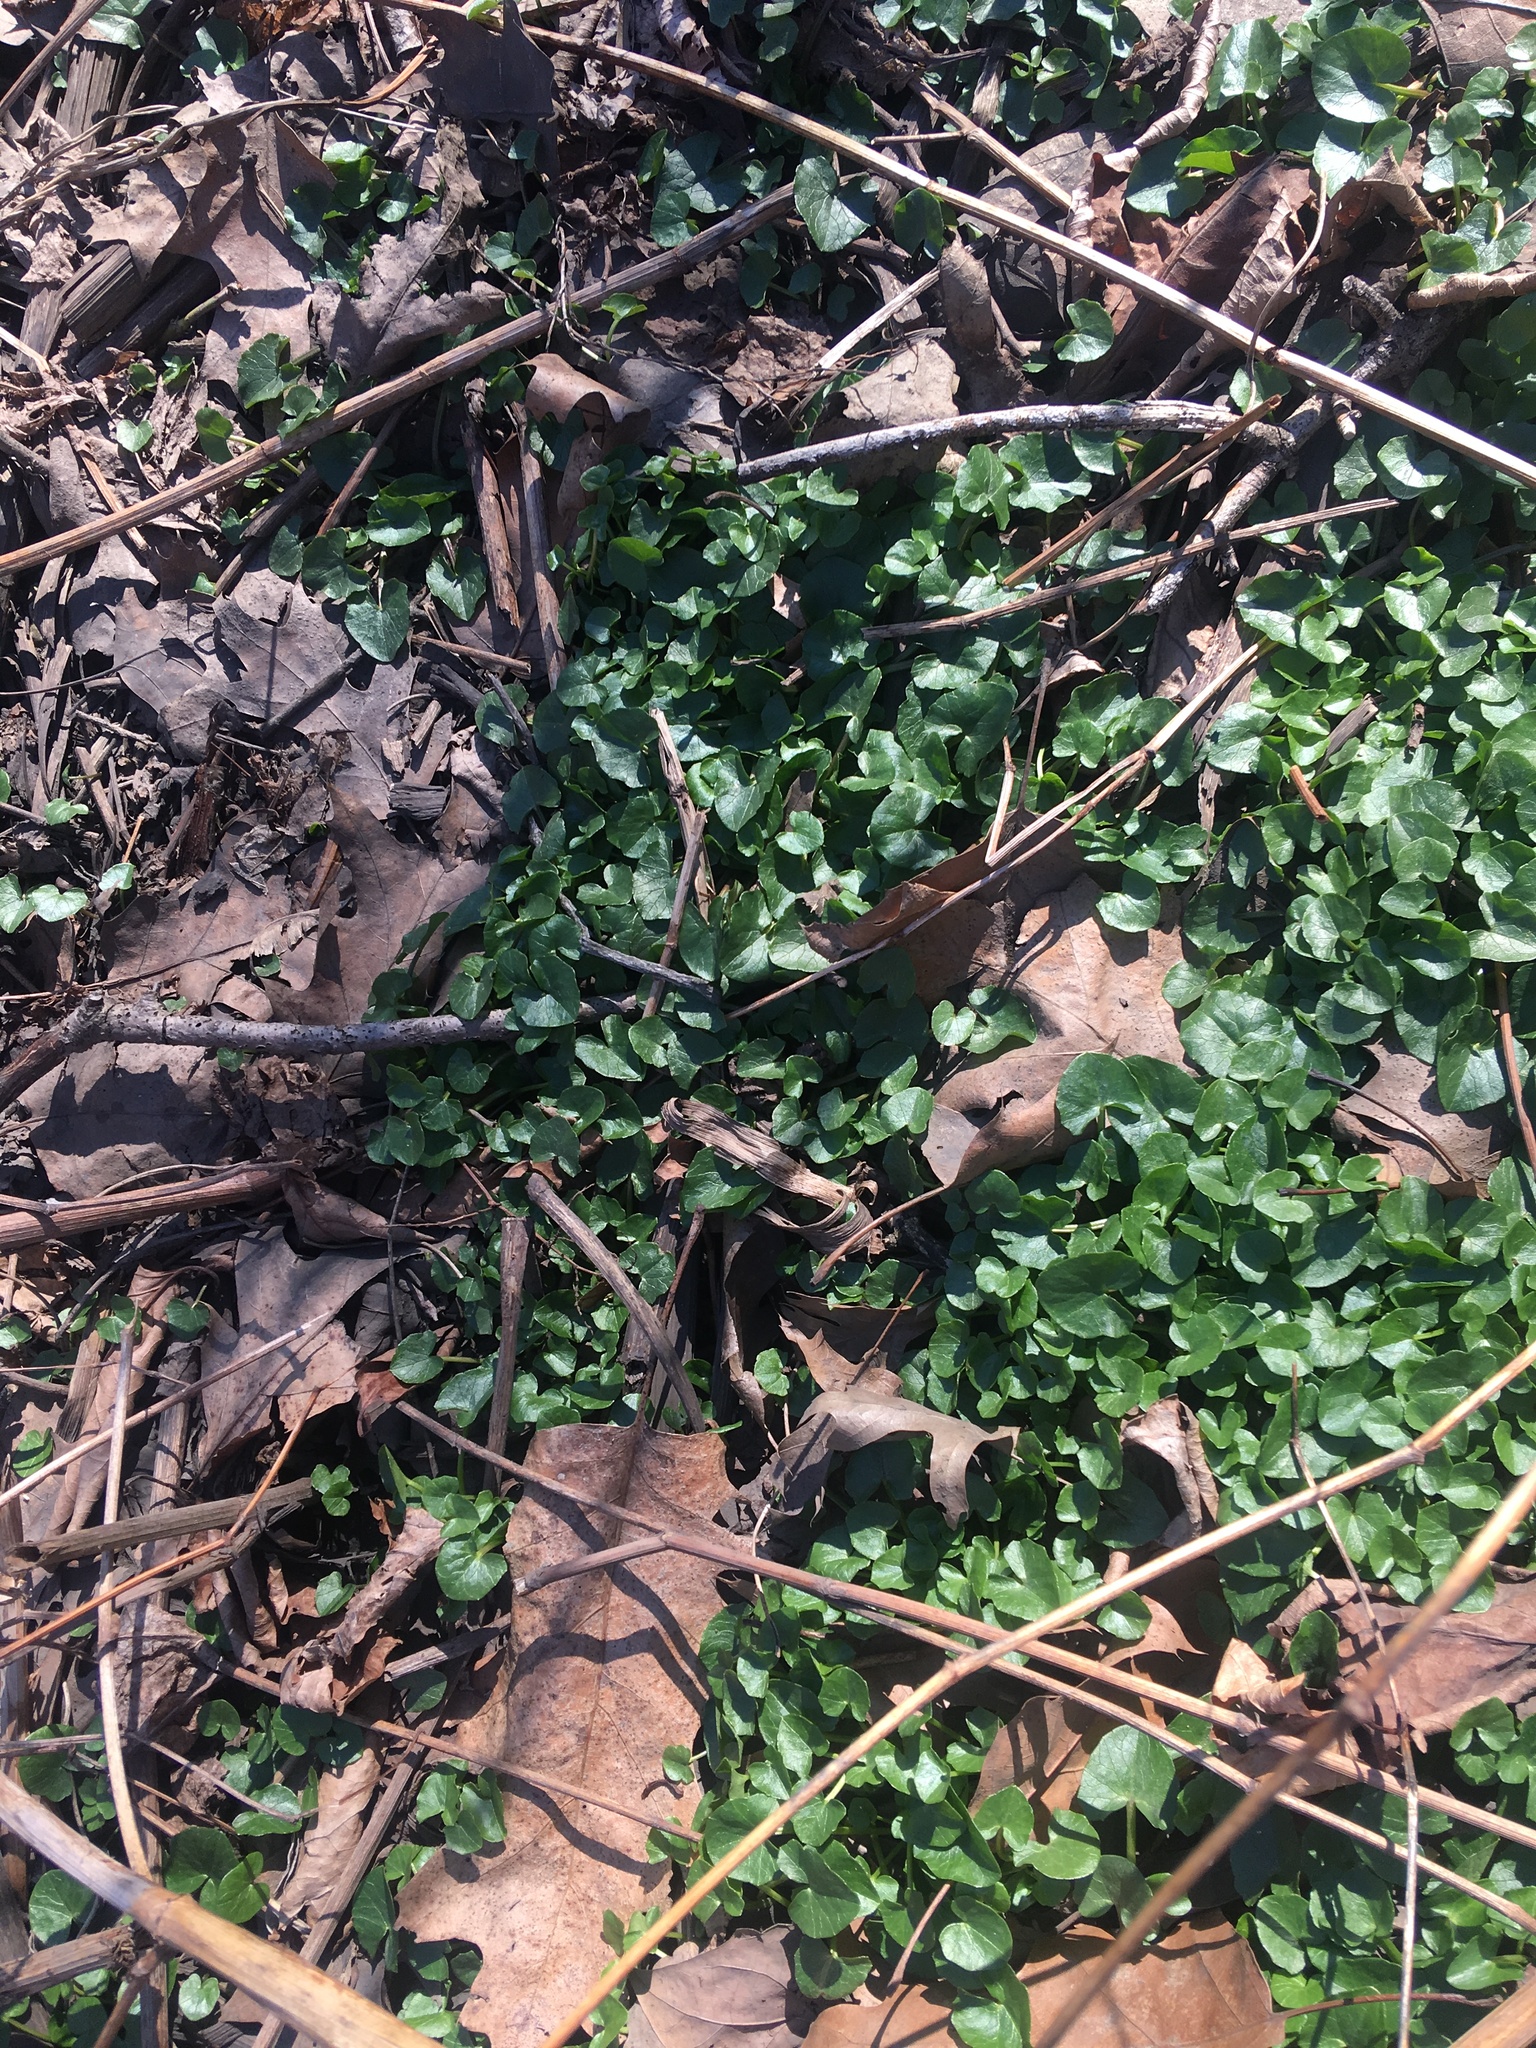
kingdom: Plantae
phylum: Tracheophyta
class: Magnoliopsida
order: Ranunculales
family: Ranunculaceae
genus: Ficaria
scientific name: Ficaria verna
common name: Lesser celandine
